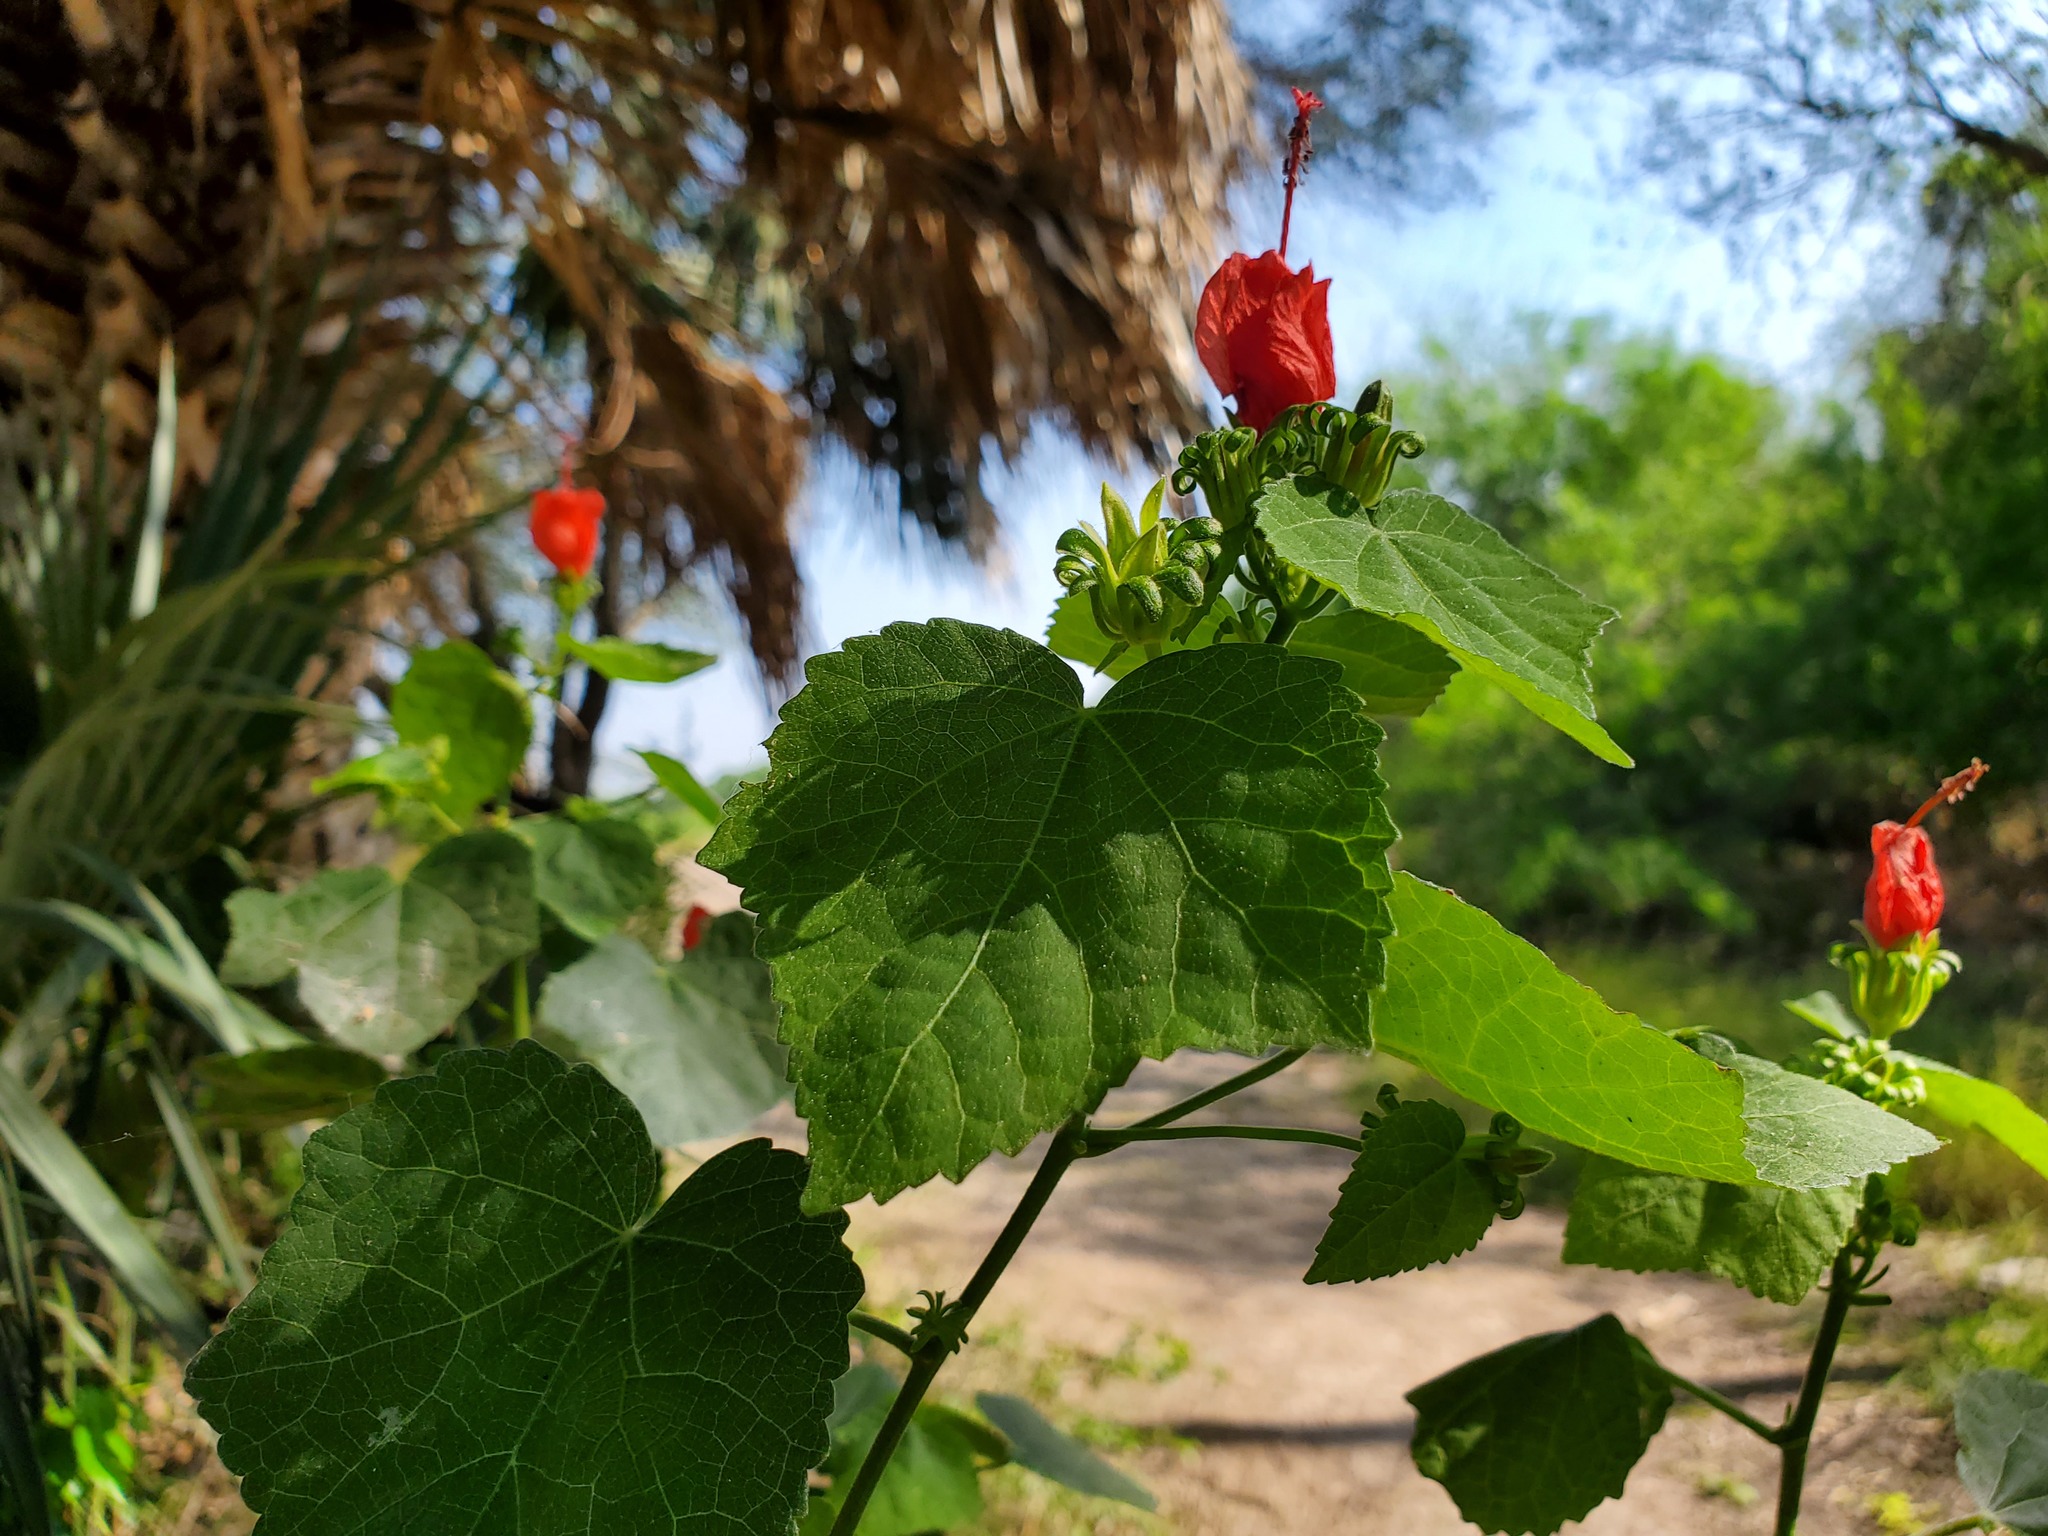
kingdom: Plantae
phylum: Tracheophyta
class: Magnoliopsida
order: Malvales
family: Malvaceae
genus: Malvaviscus
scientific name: Malvaviscus arboreus
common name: Wax mallow
